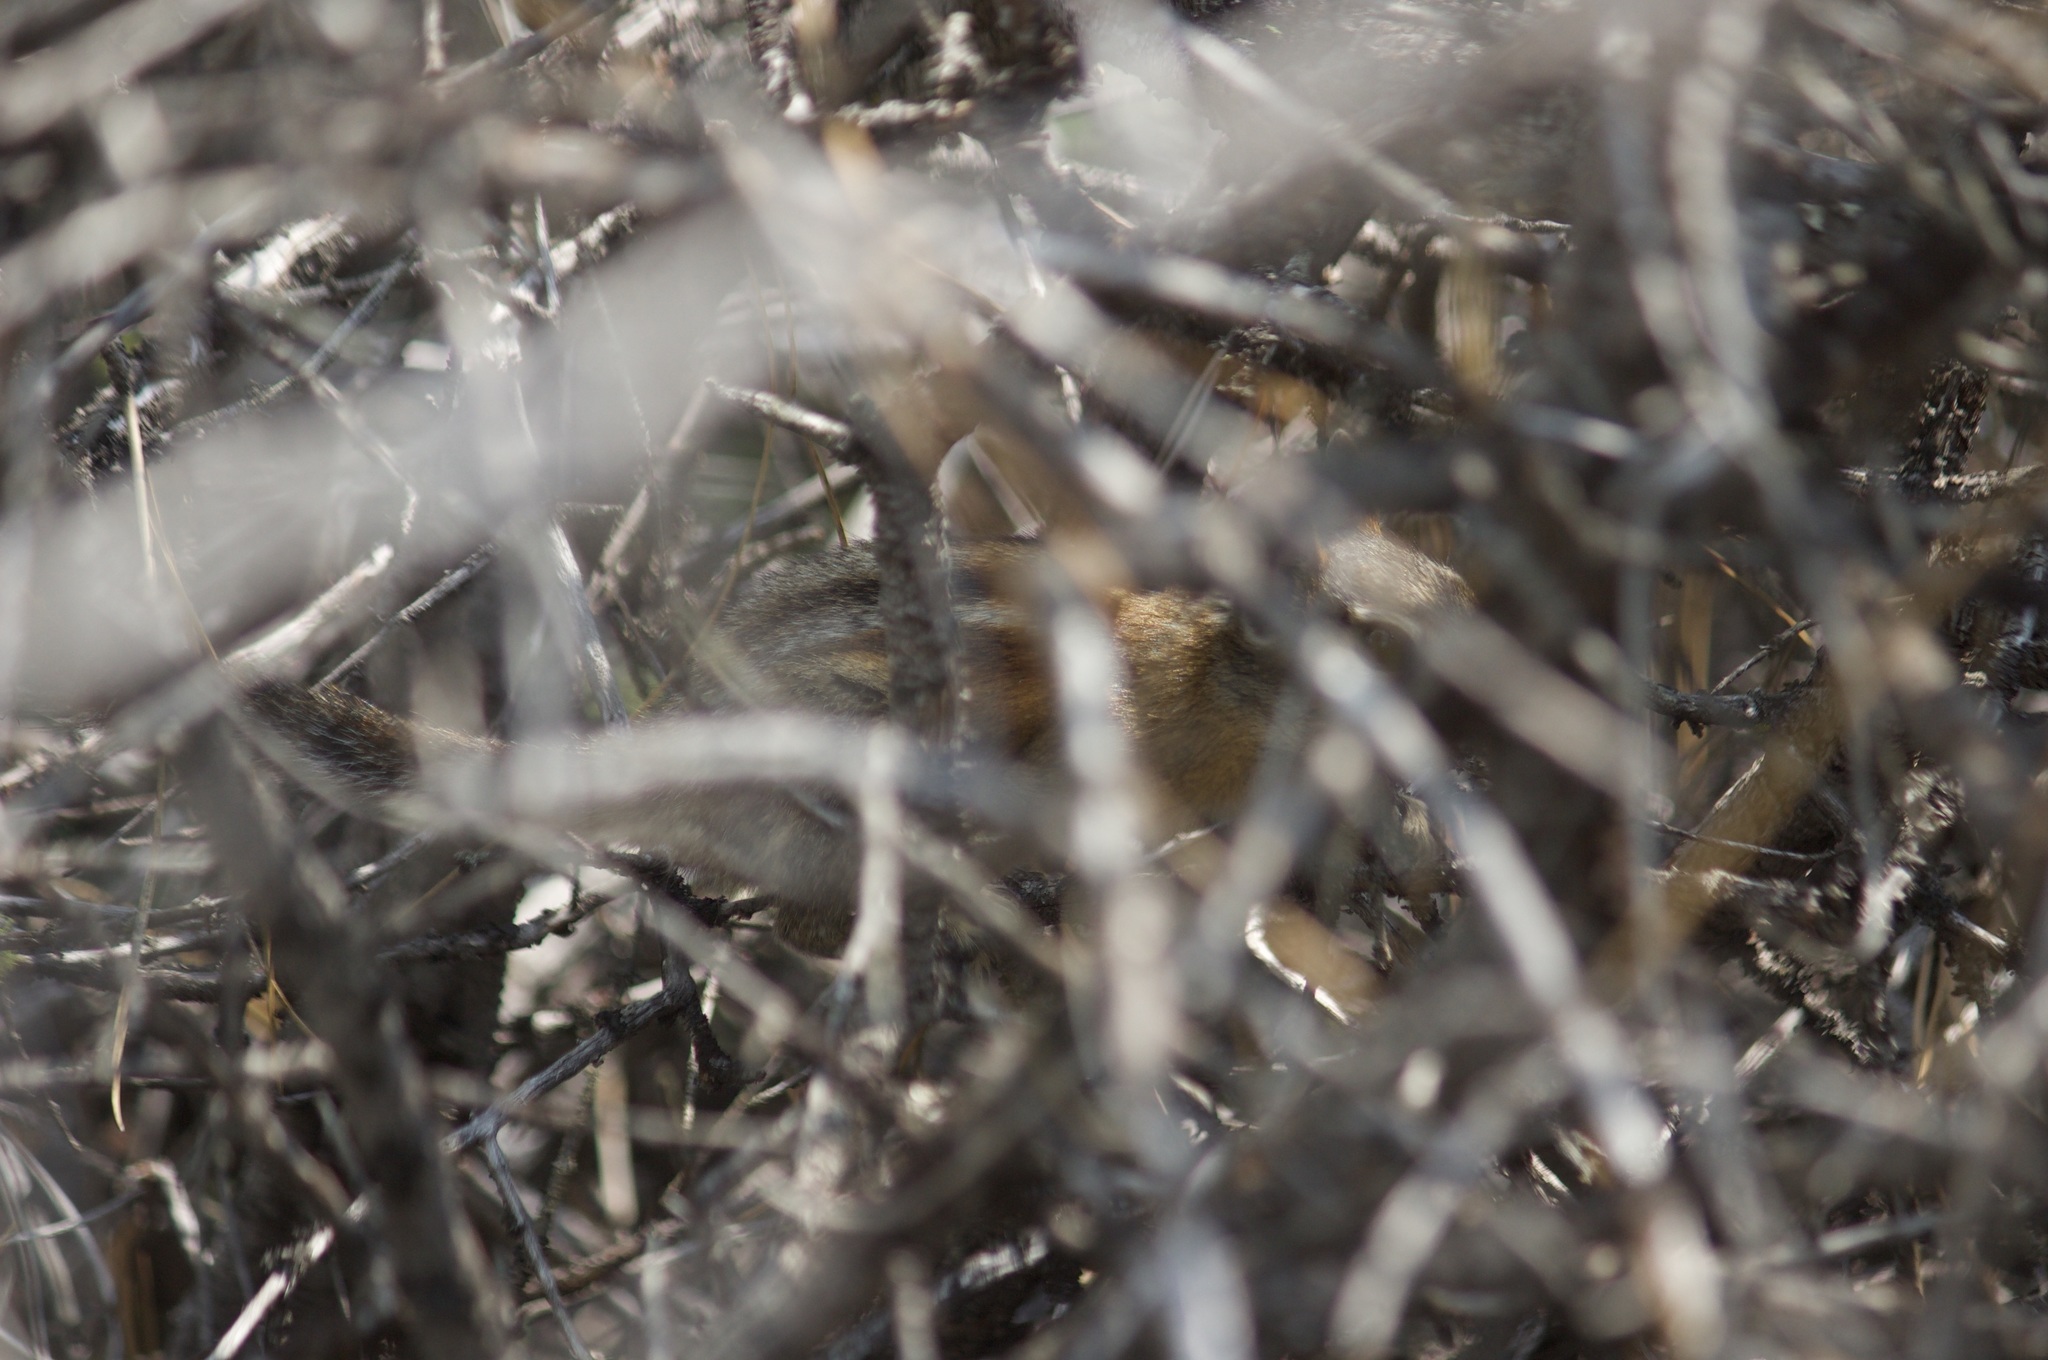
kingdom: Animalia
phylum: Chordata
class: Mammalia
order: Rodentia
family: Sciuridae
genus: Callospermophilus
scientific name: Callospermophilus lateralis
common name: Golden-mantled ground squirrel
